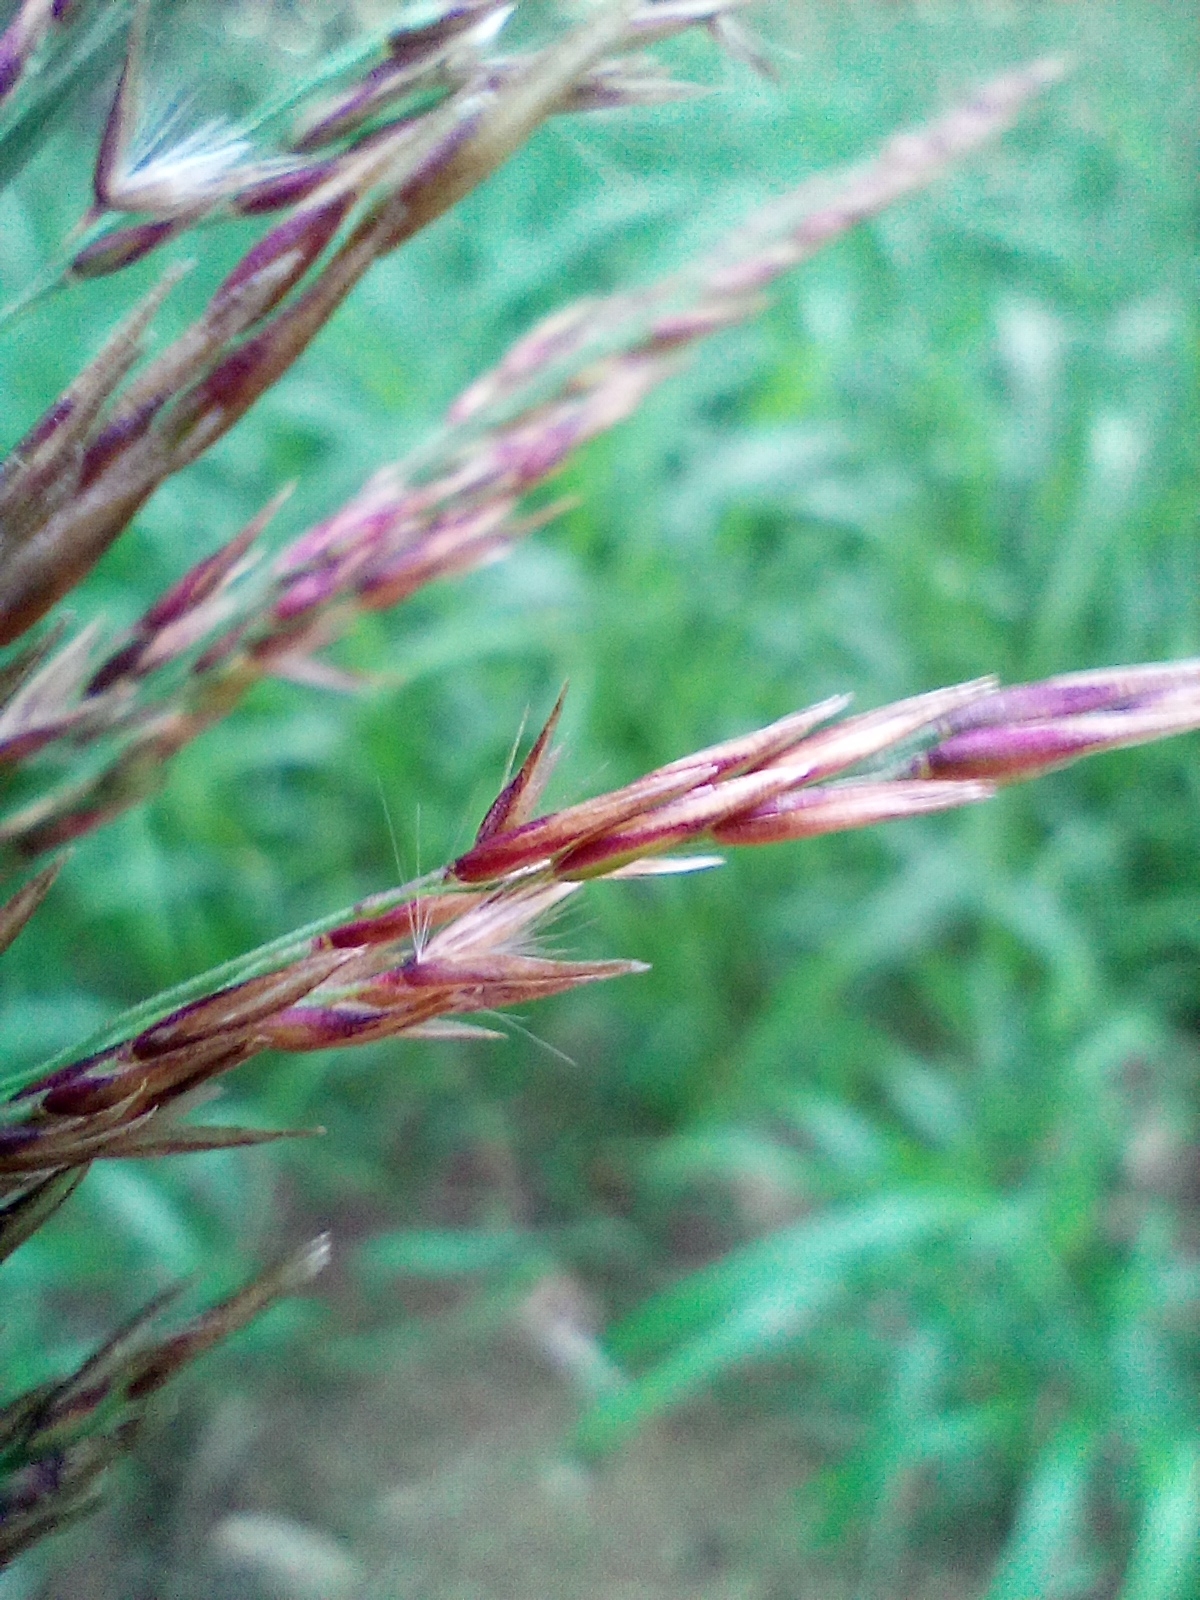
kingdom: Plantae
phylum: Tracheophyta
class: Liliopsida
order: Poales
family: Poaceae
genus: Calamagrostis
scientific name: Calamagrostis villosa
